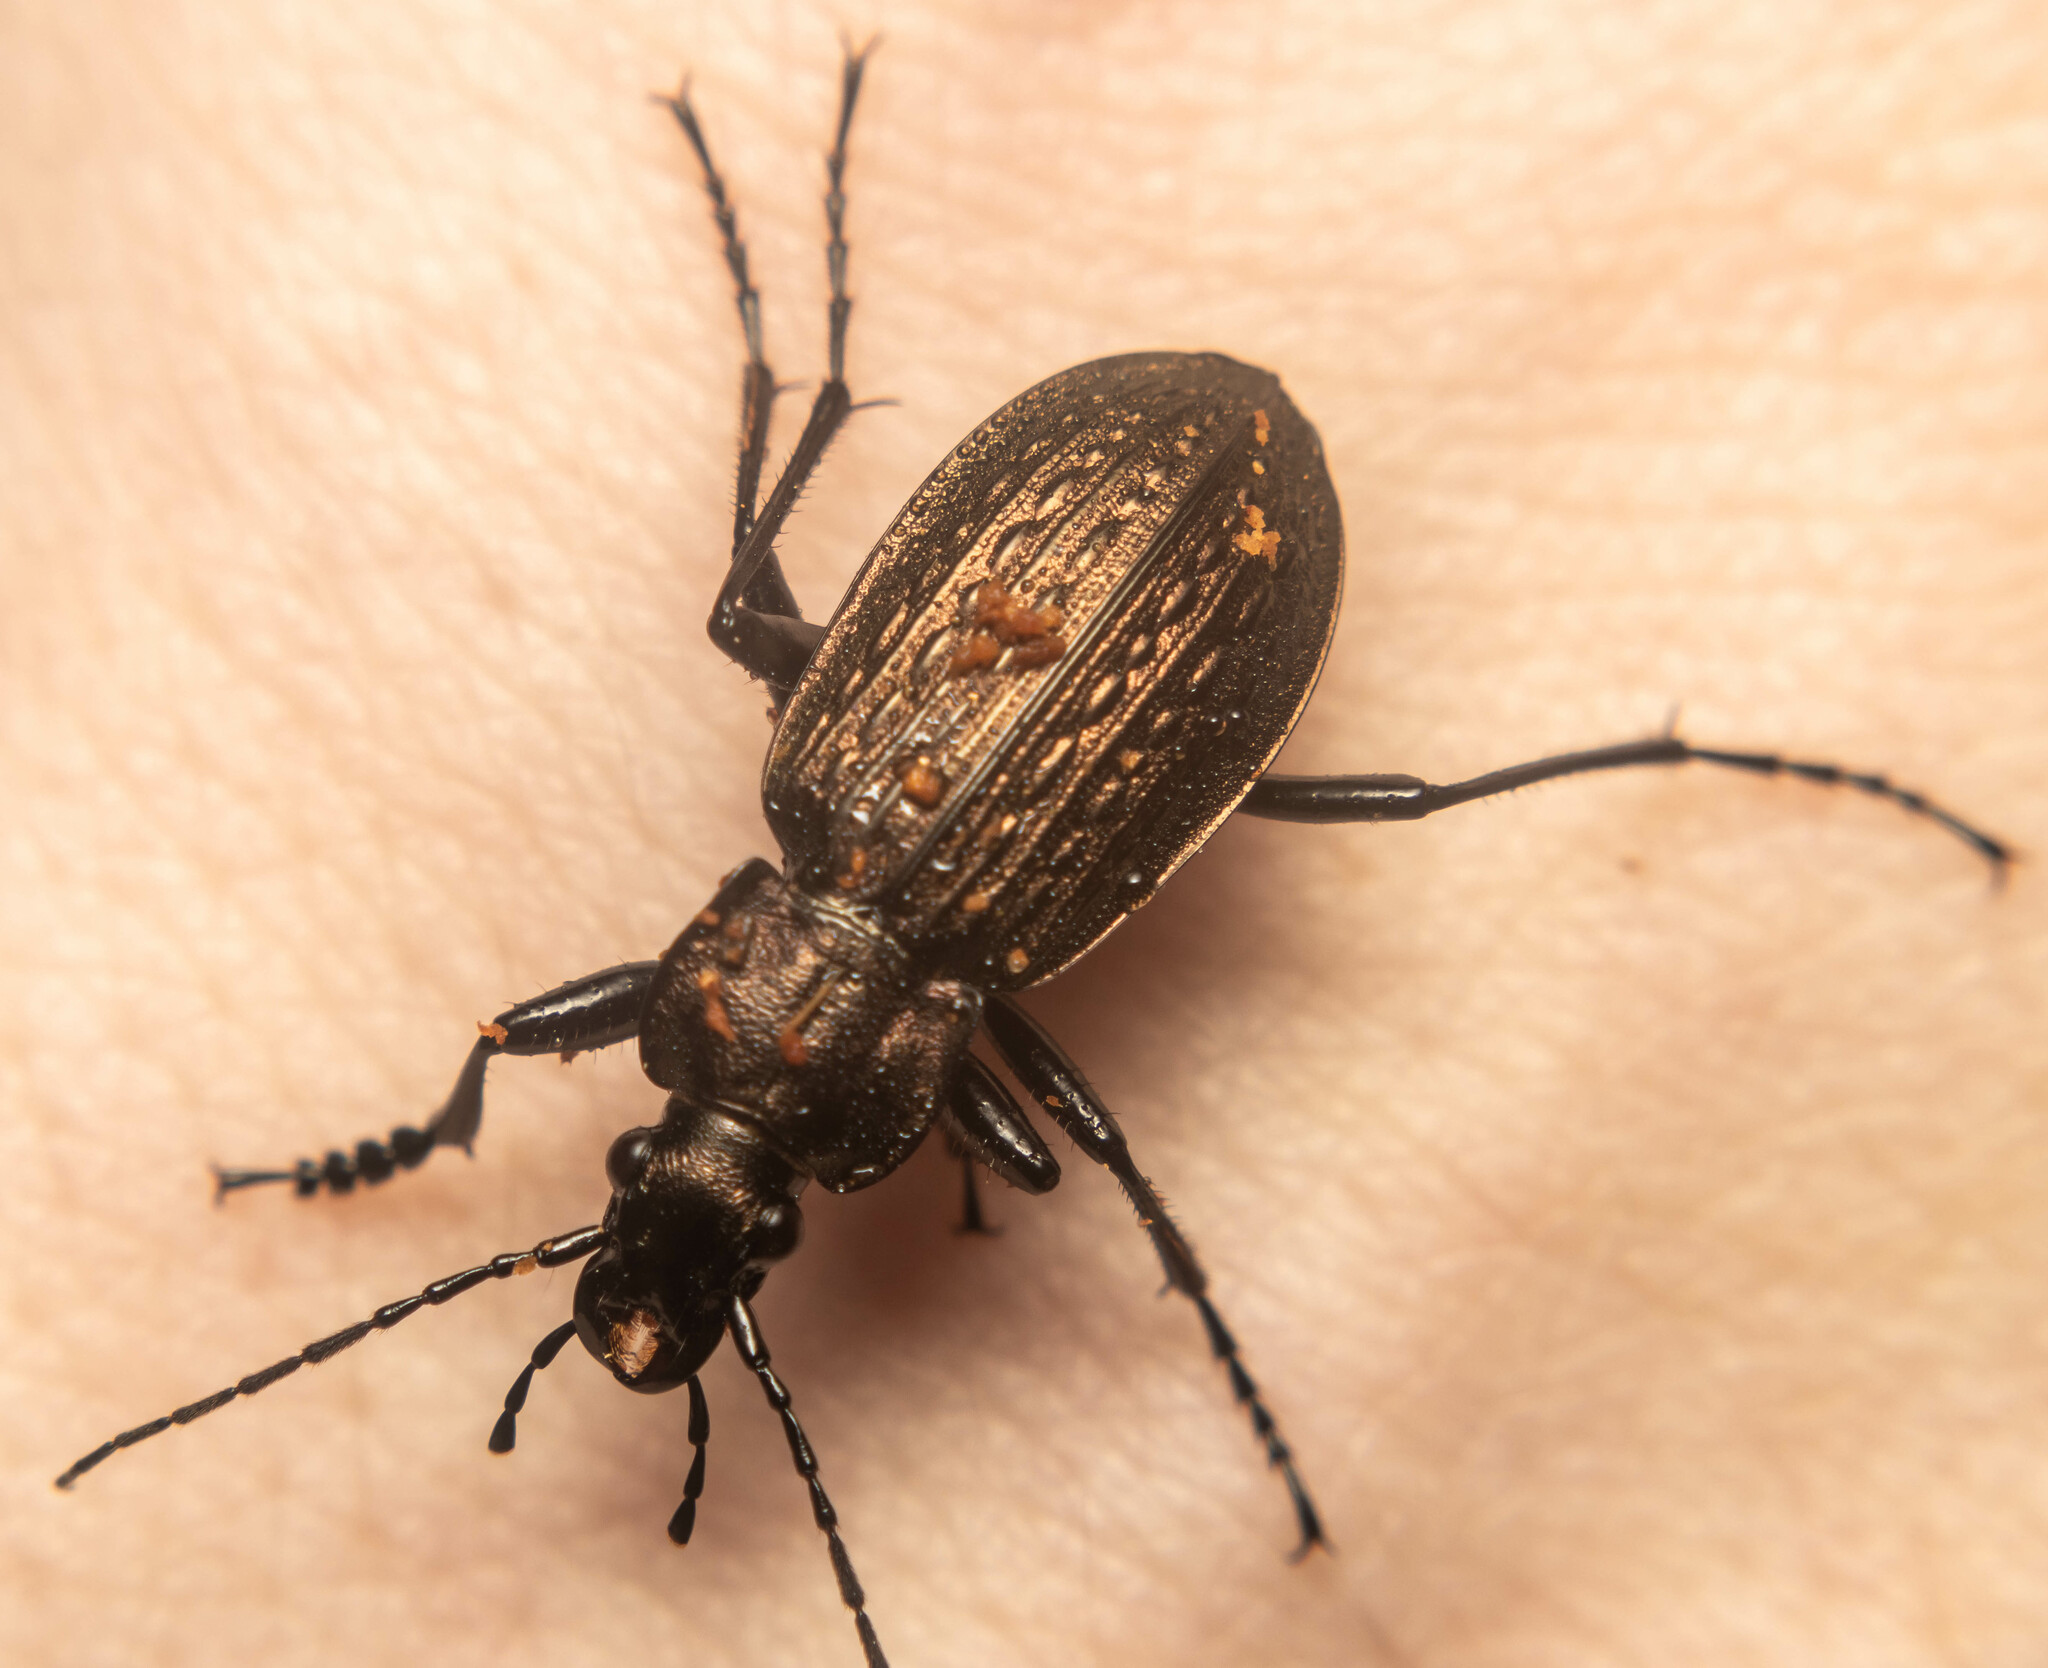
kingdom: Animalia
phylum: Arthropoda
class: Insecta
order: Coleoptera
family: Carabidae
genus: Carabus
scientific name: Carabus granulatus
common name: Granulate ground beetle
